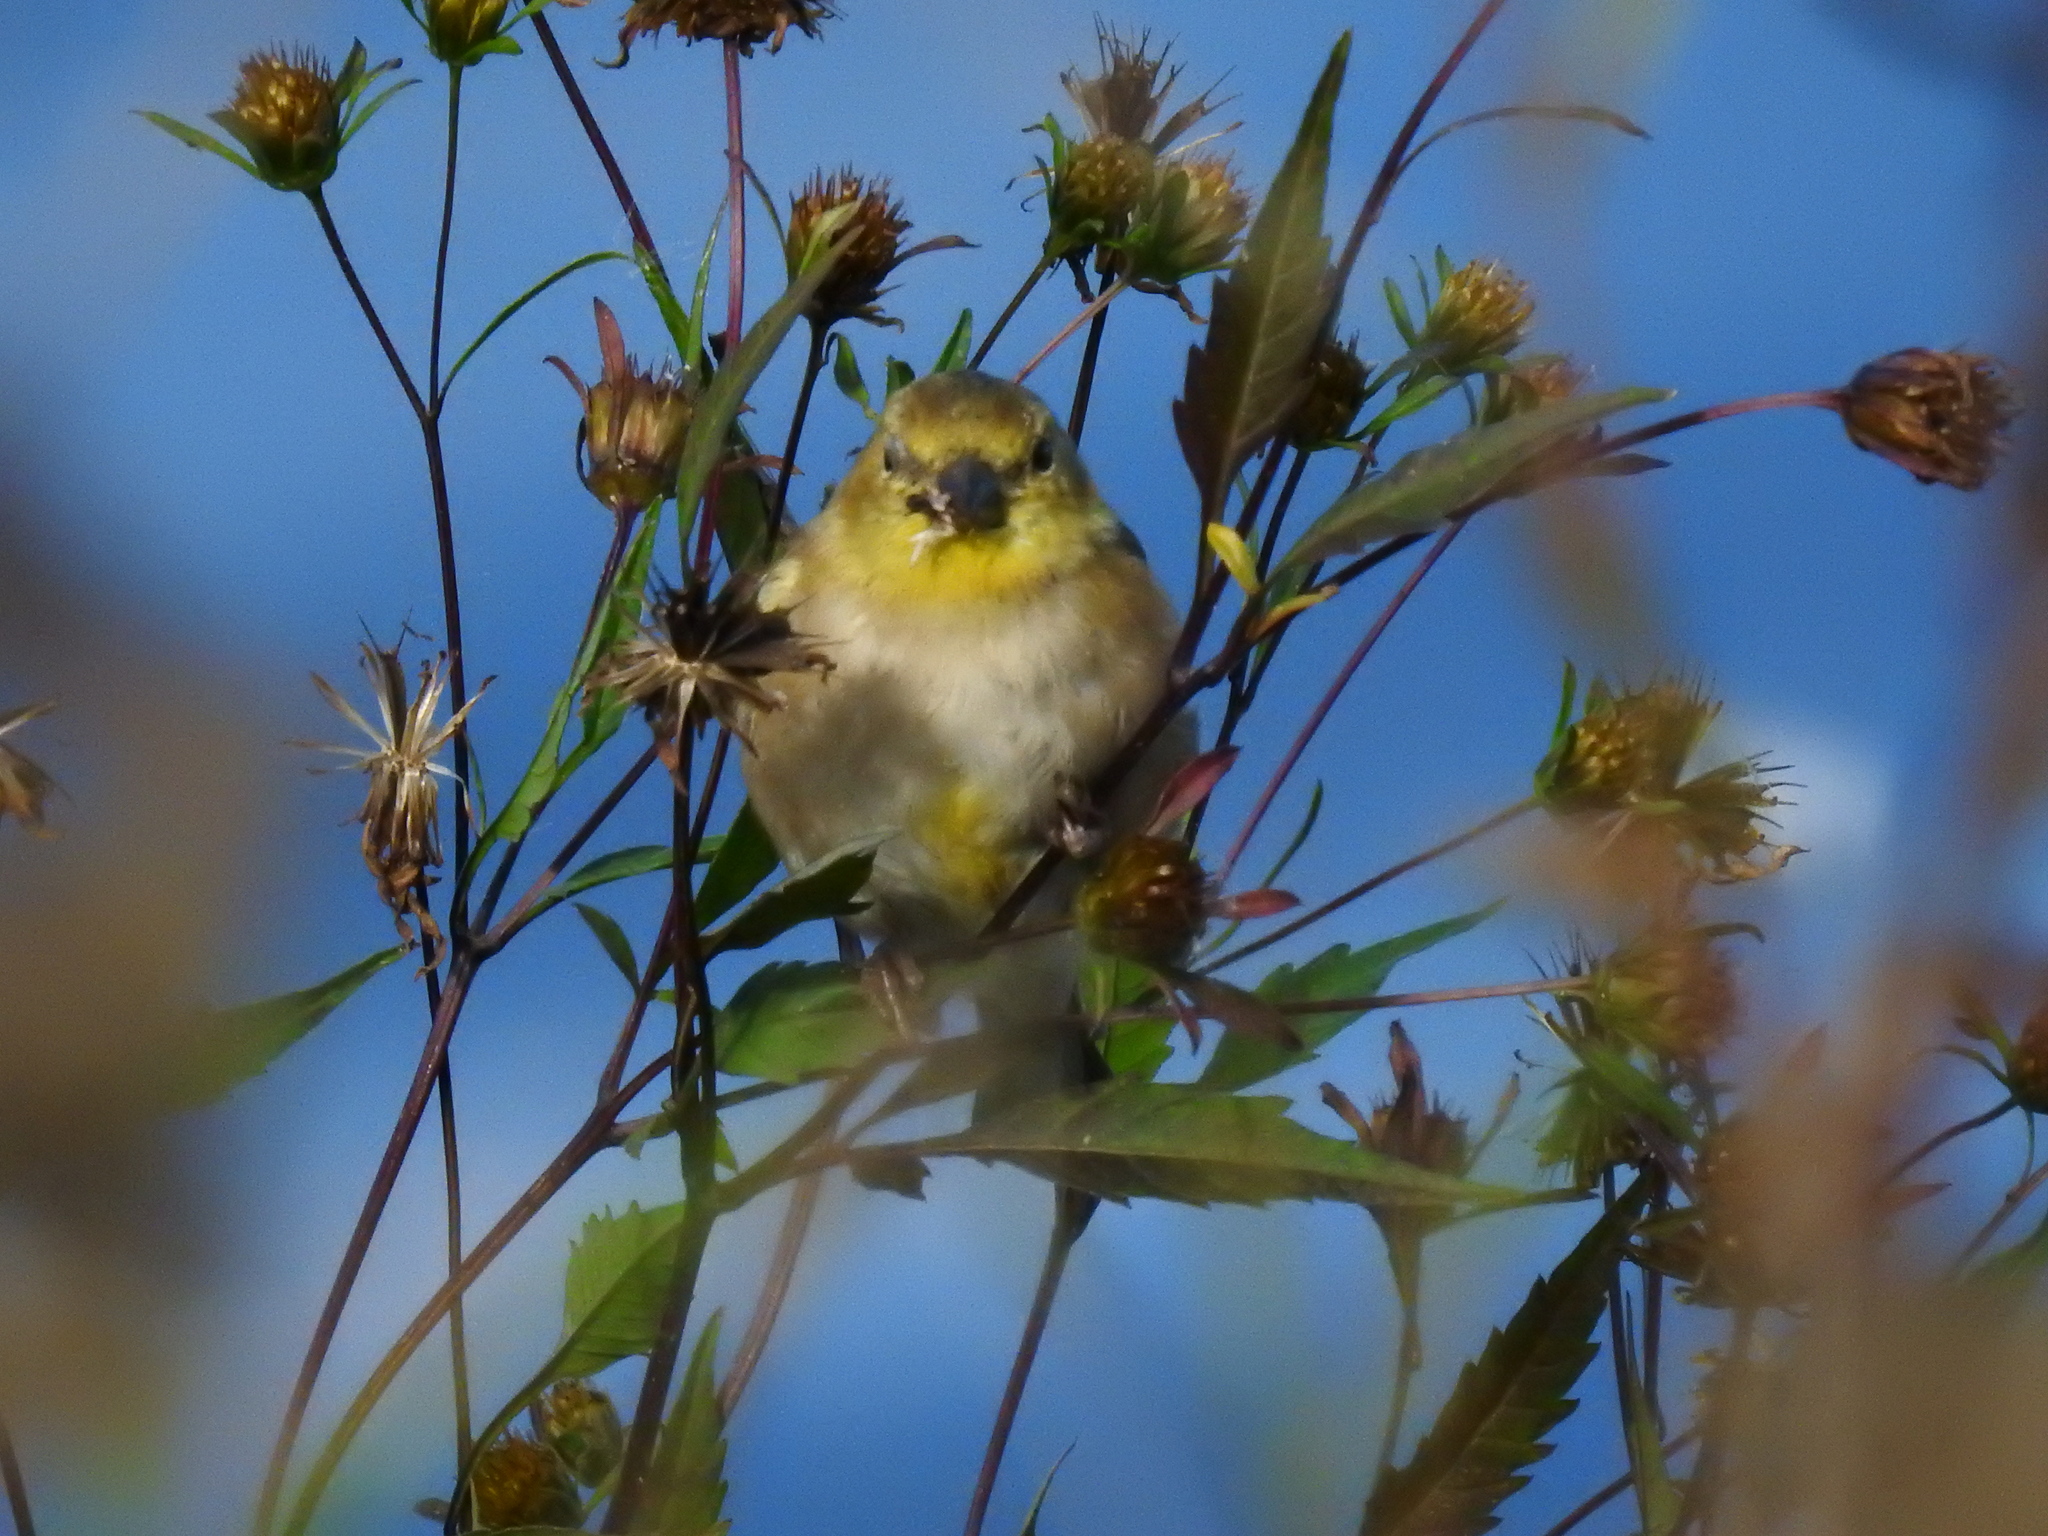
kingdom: Animalia
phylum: Chordata
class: Aves
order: Passeriformes
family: Fringillidae
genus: Spinus
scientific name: Spinus tristis
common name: American goldfinch
